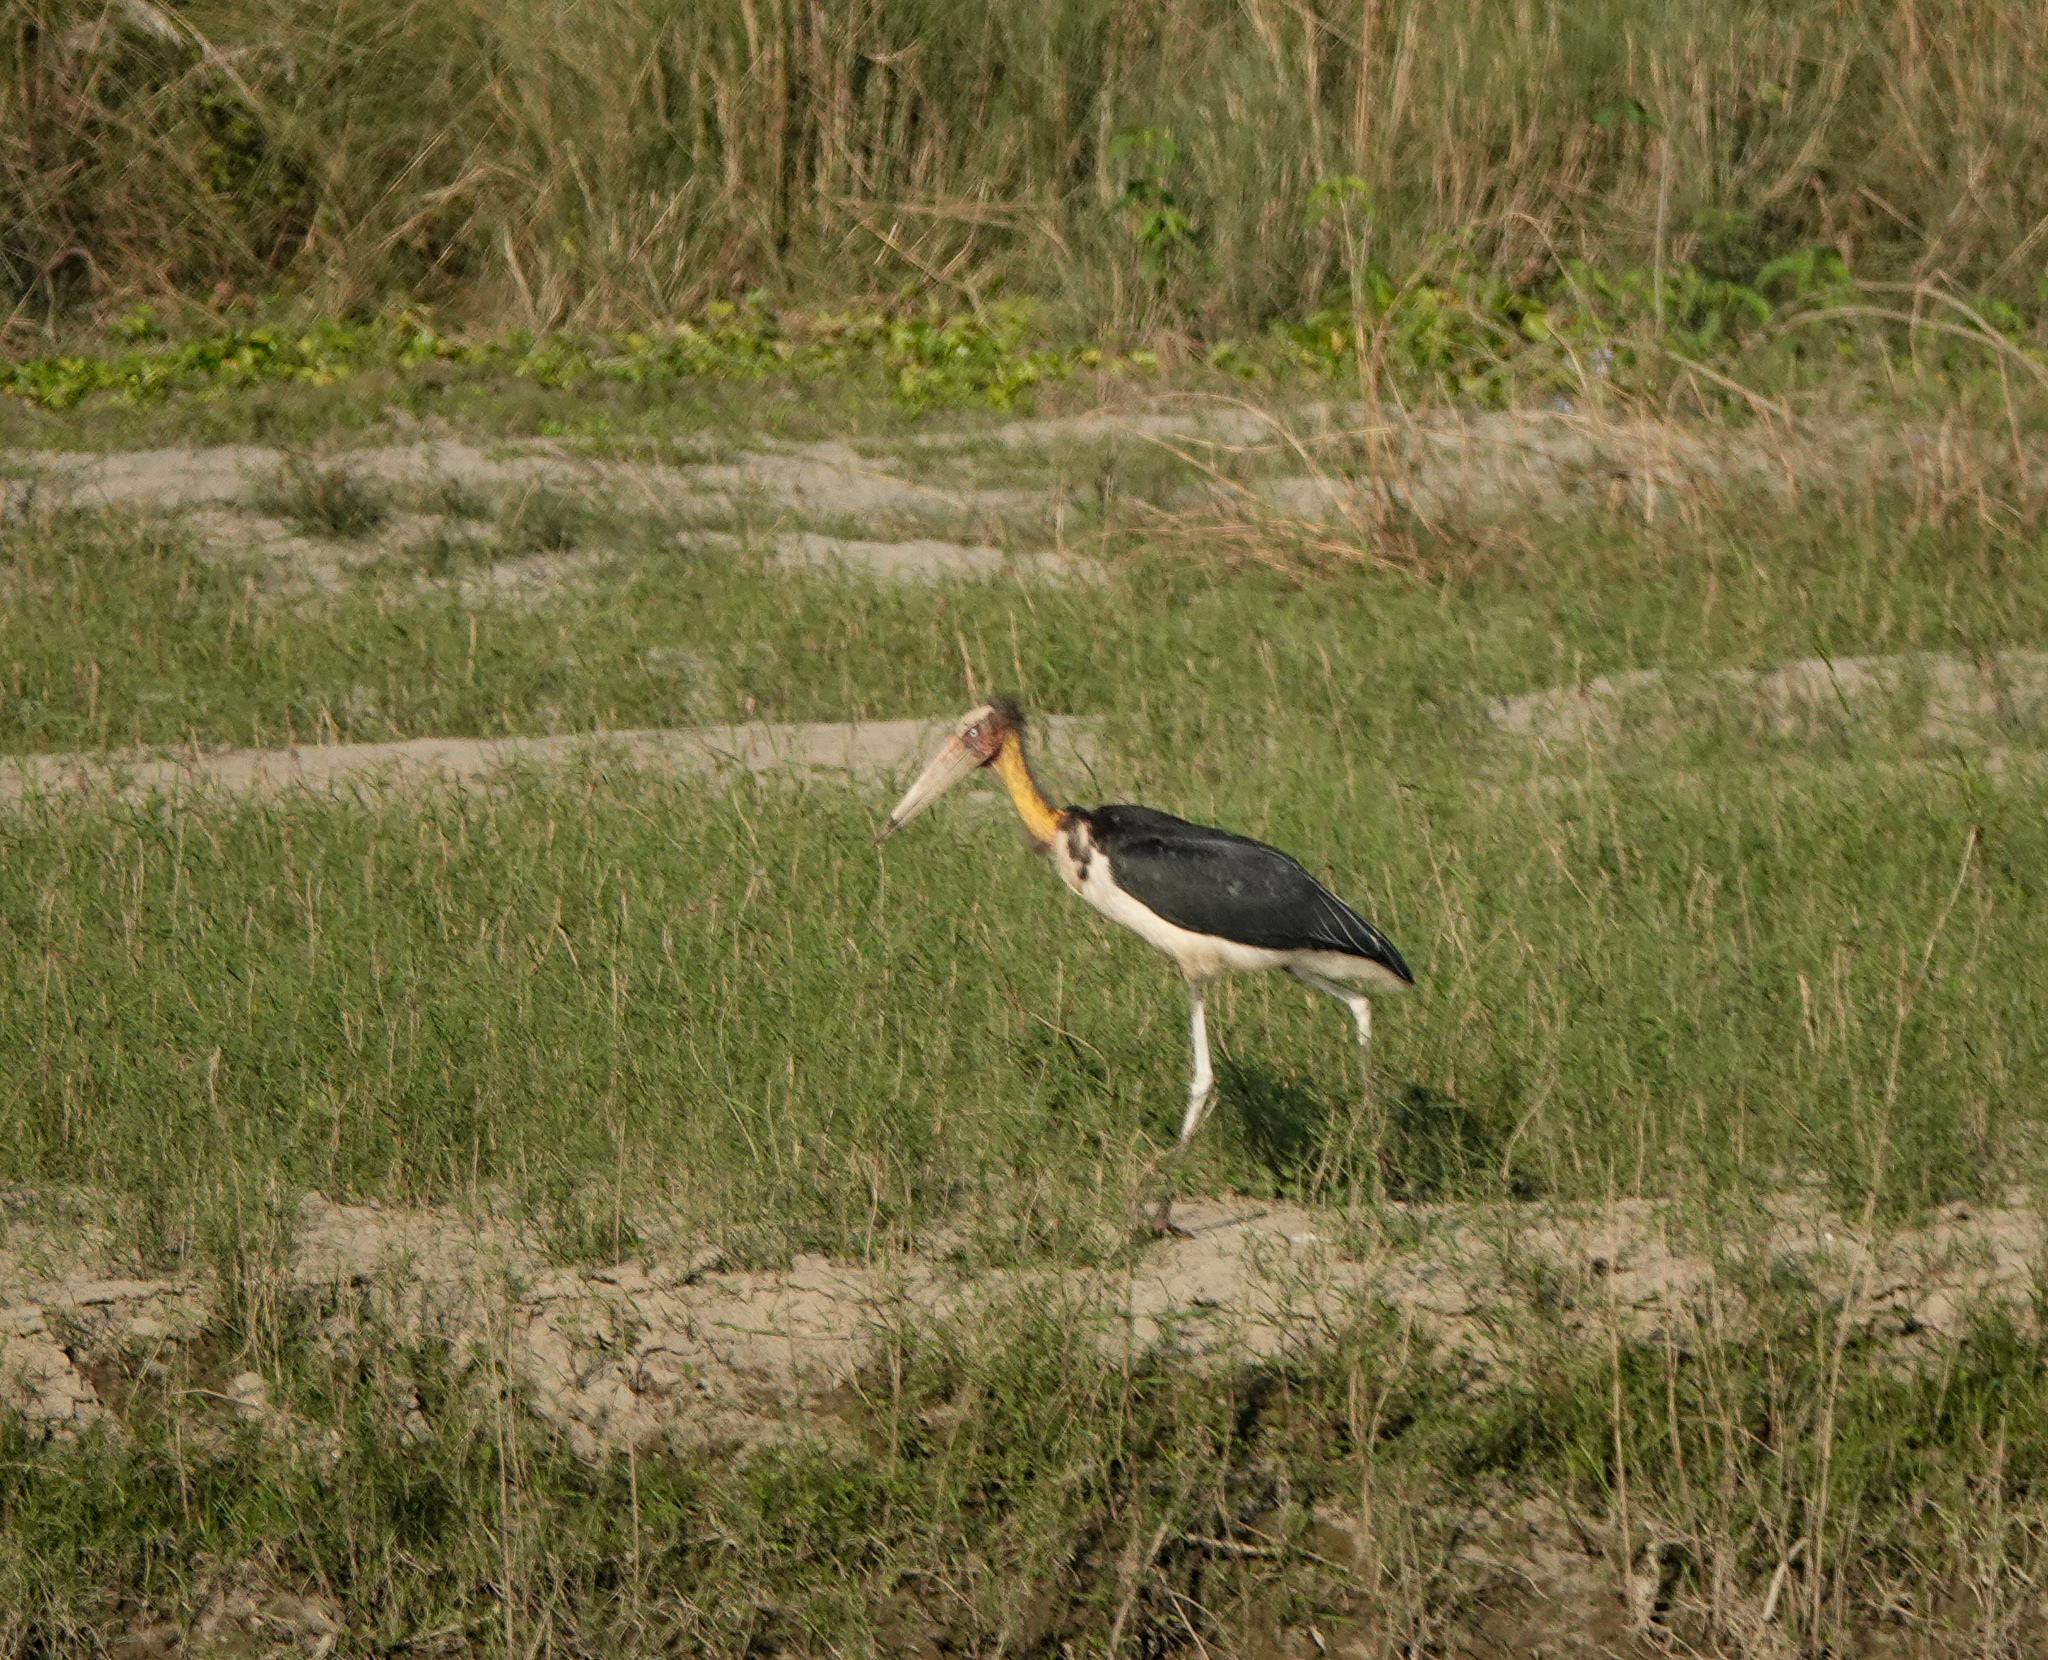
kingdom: Animalia
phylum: Chordata
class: Aves
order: Ciconiiformes
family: Ciconiidae
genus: Leptoptilos
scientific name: Leptoptilos javanicus
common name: Lesser adjutant
